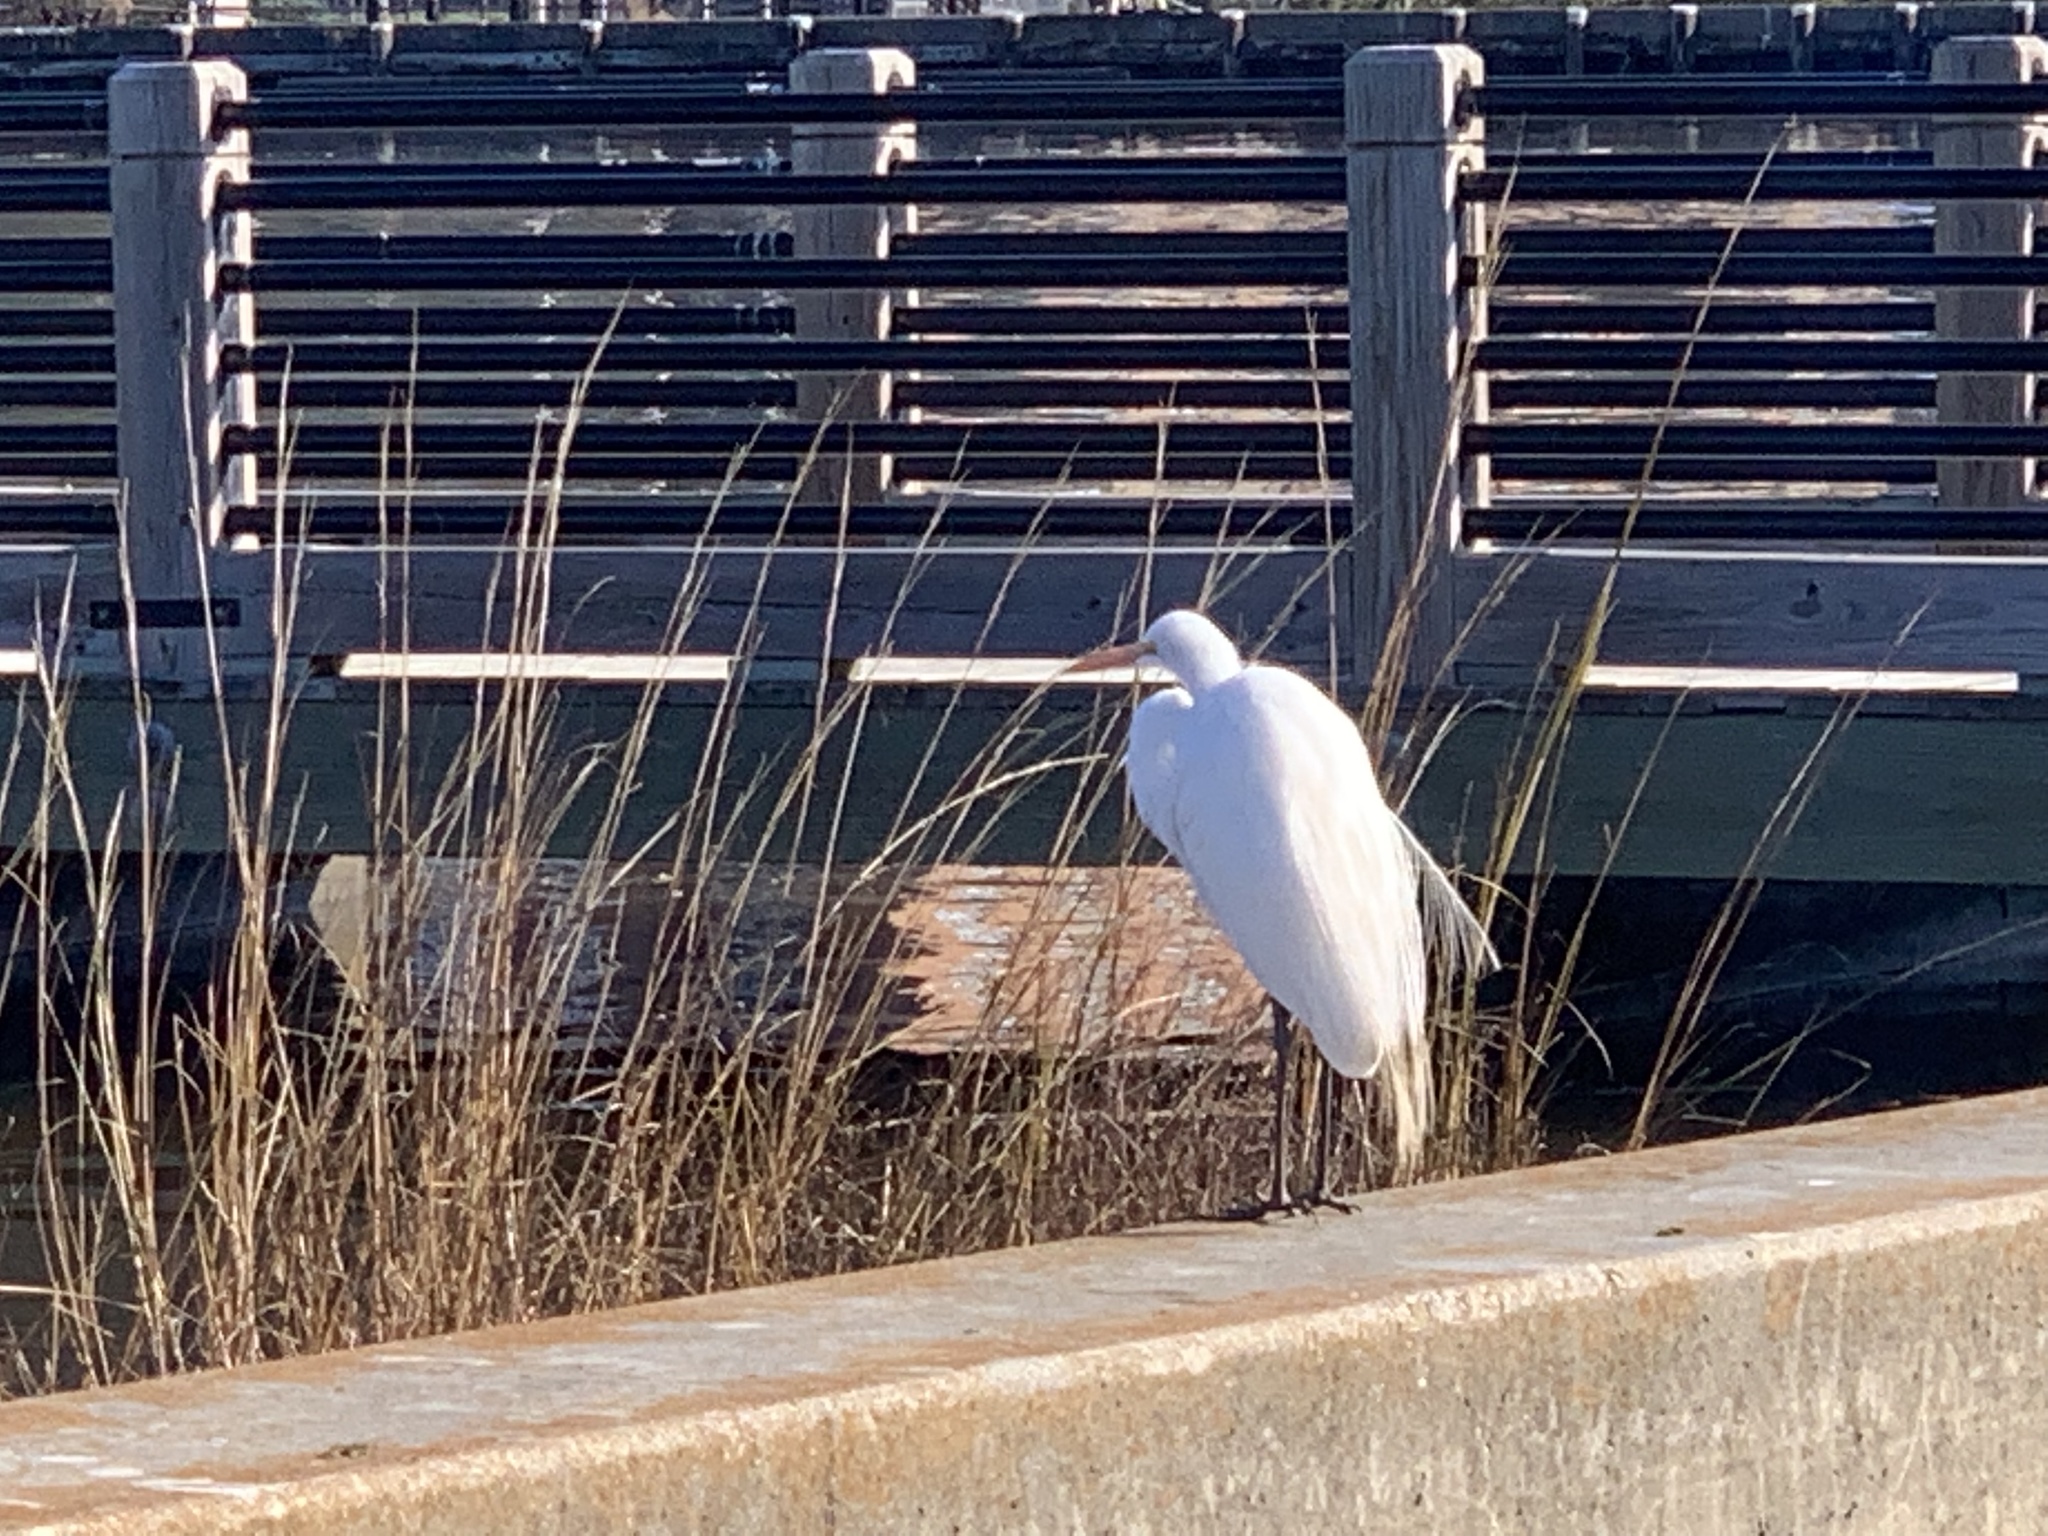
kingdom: Animalia
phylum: Chordata
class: Aves
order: Pelecaniformes
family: Ardeidae
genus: Ardea
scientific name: Ardea alba
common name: Great egret
